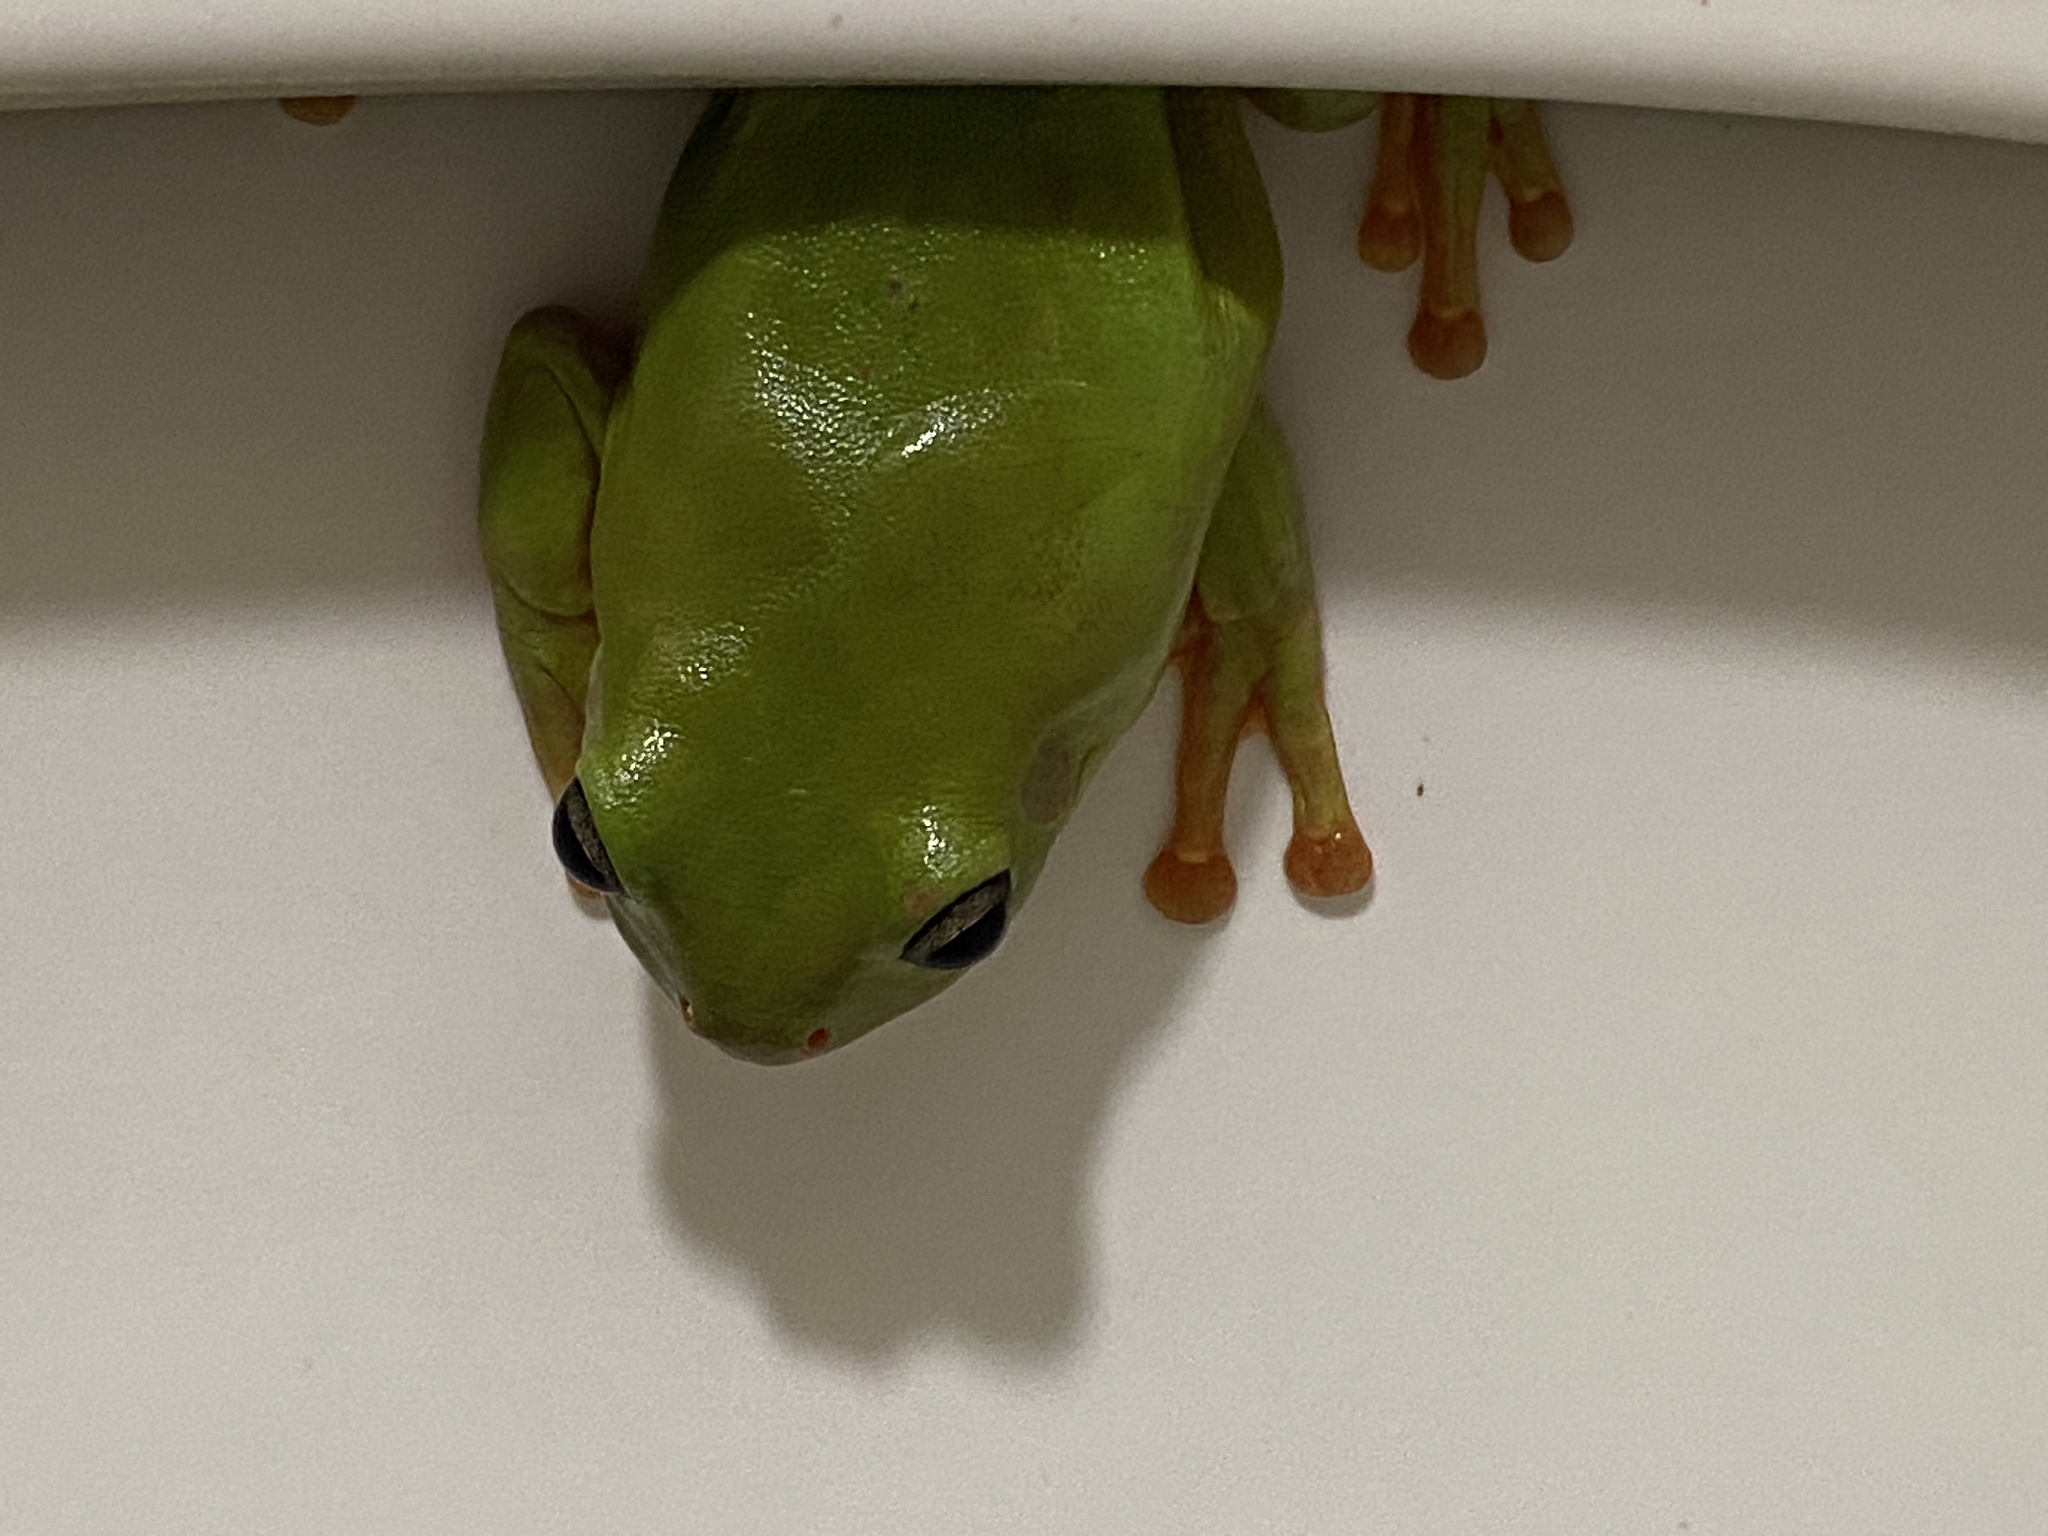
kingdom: Animalia
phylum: Chordata
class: Amphibia
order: Anura
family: Pelodryadidae
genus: Ranoidea
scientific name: Ranoidea caerulea
